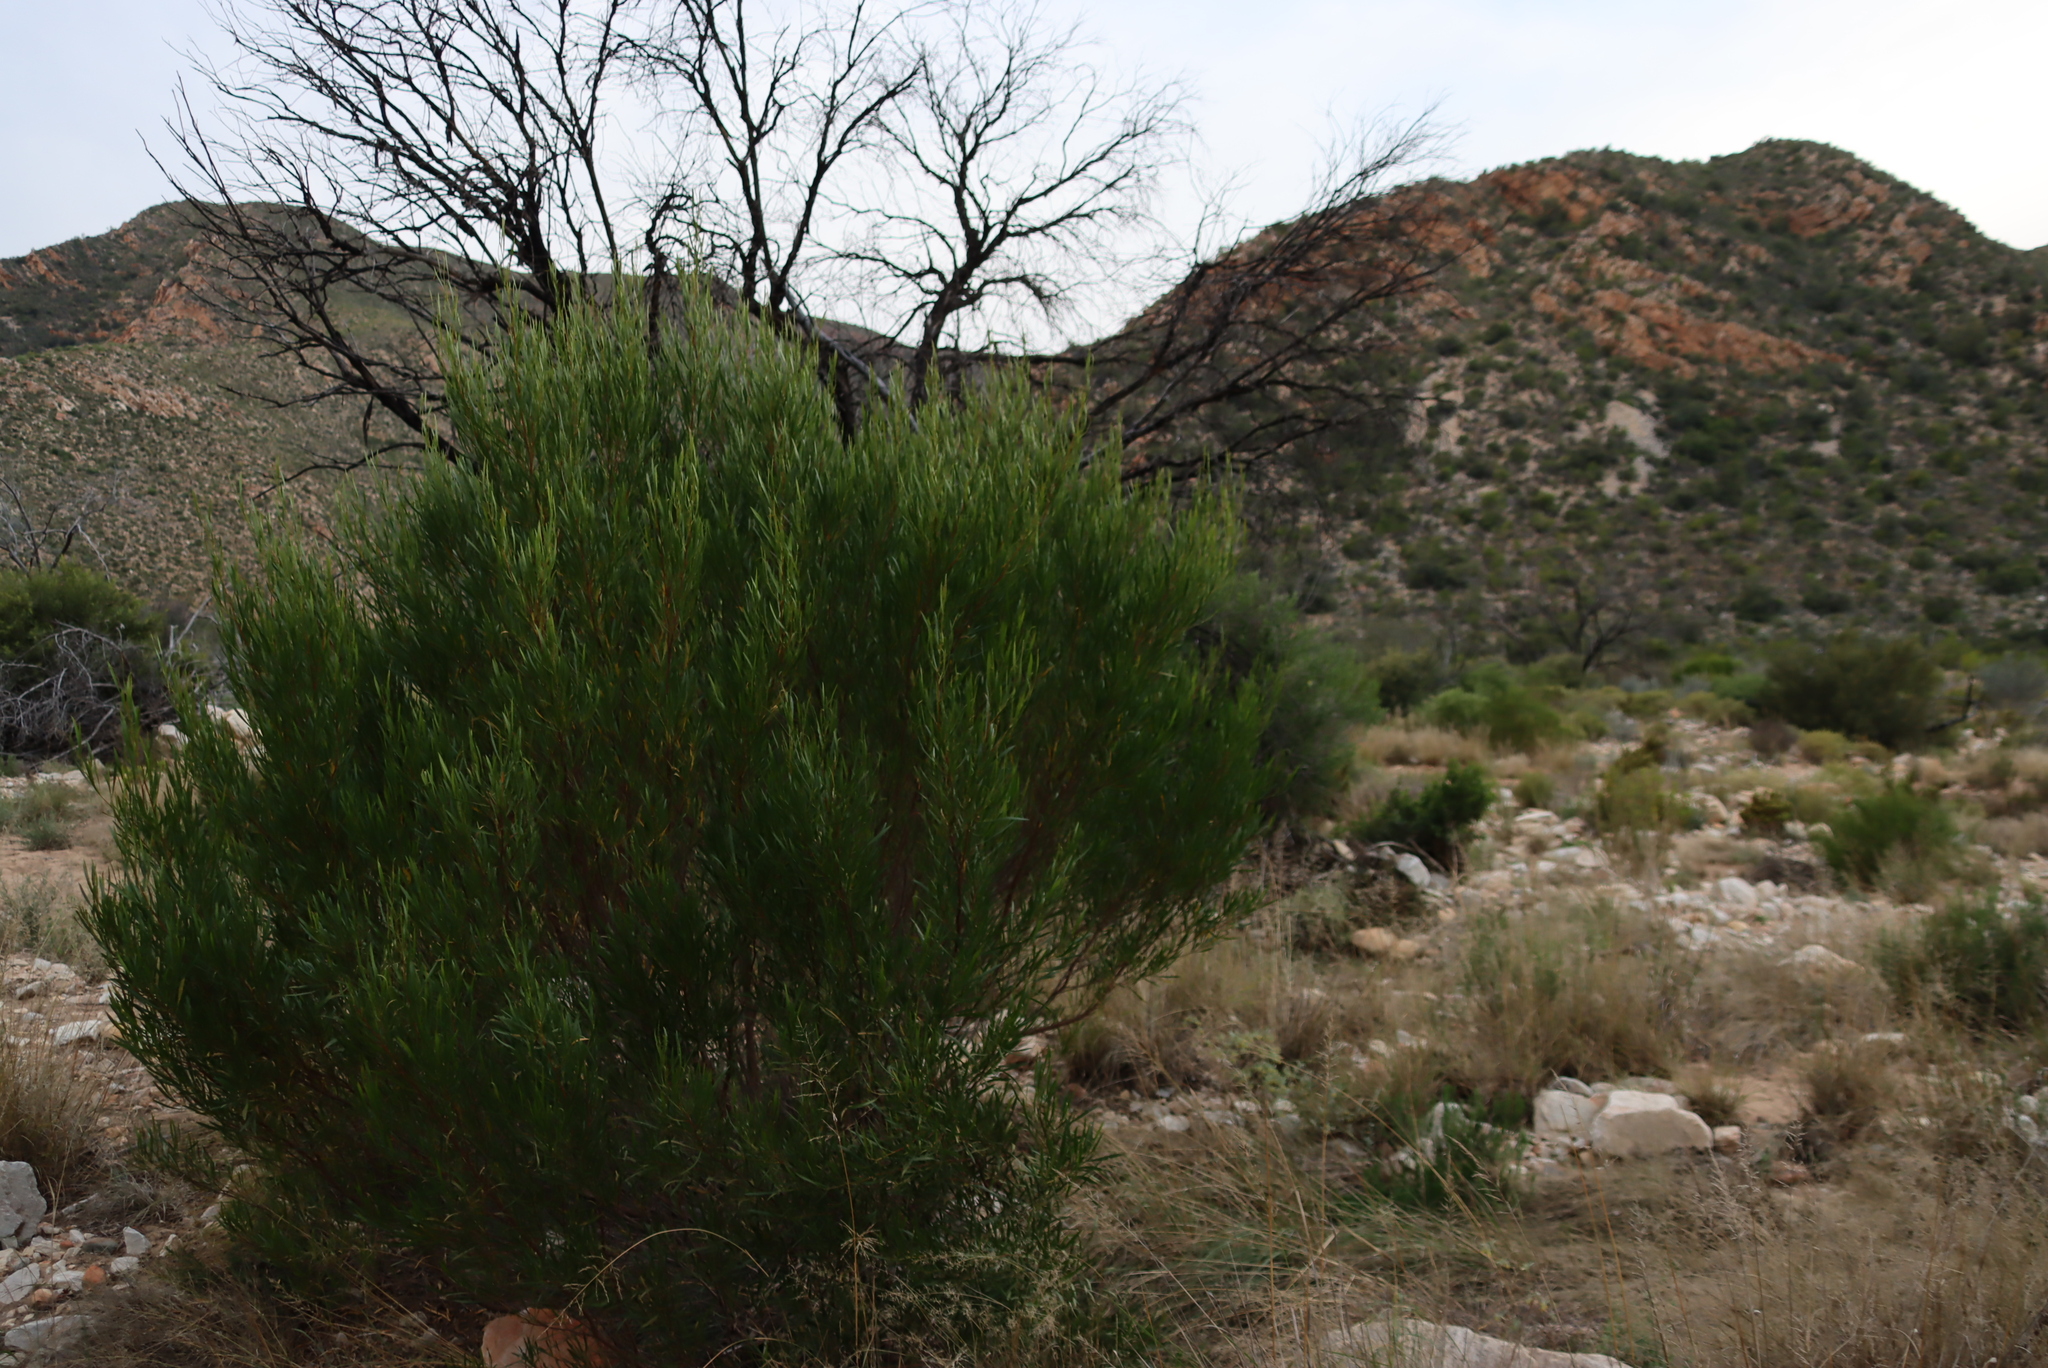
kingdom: Plantae
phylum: Tracheophyta
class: Magnoliopsida
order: Sapindales
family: Sapindaceae
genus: Dodonaea
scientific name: Dodonaea viscosa
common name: Hopbush
